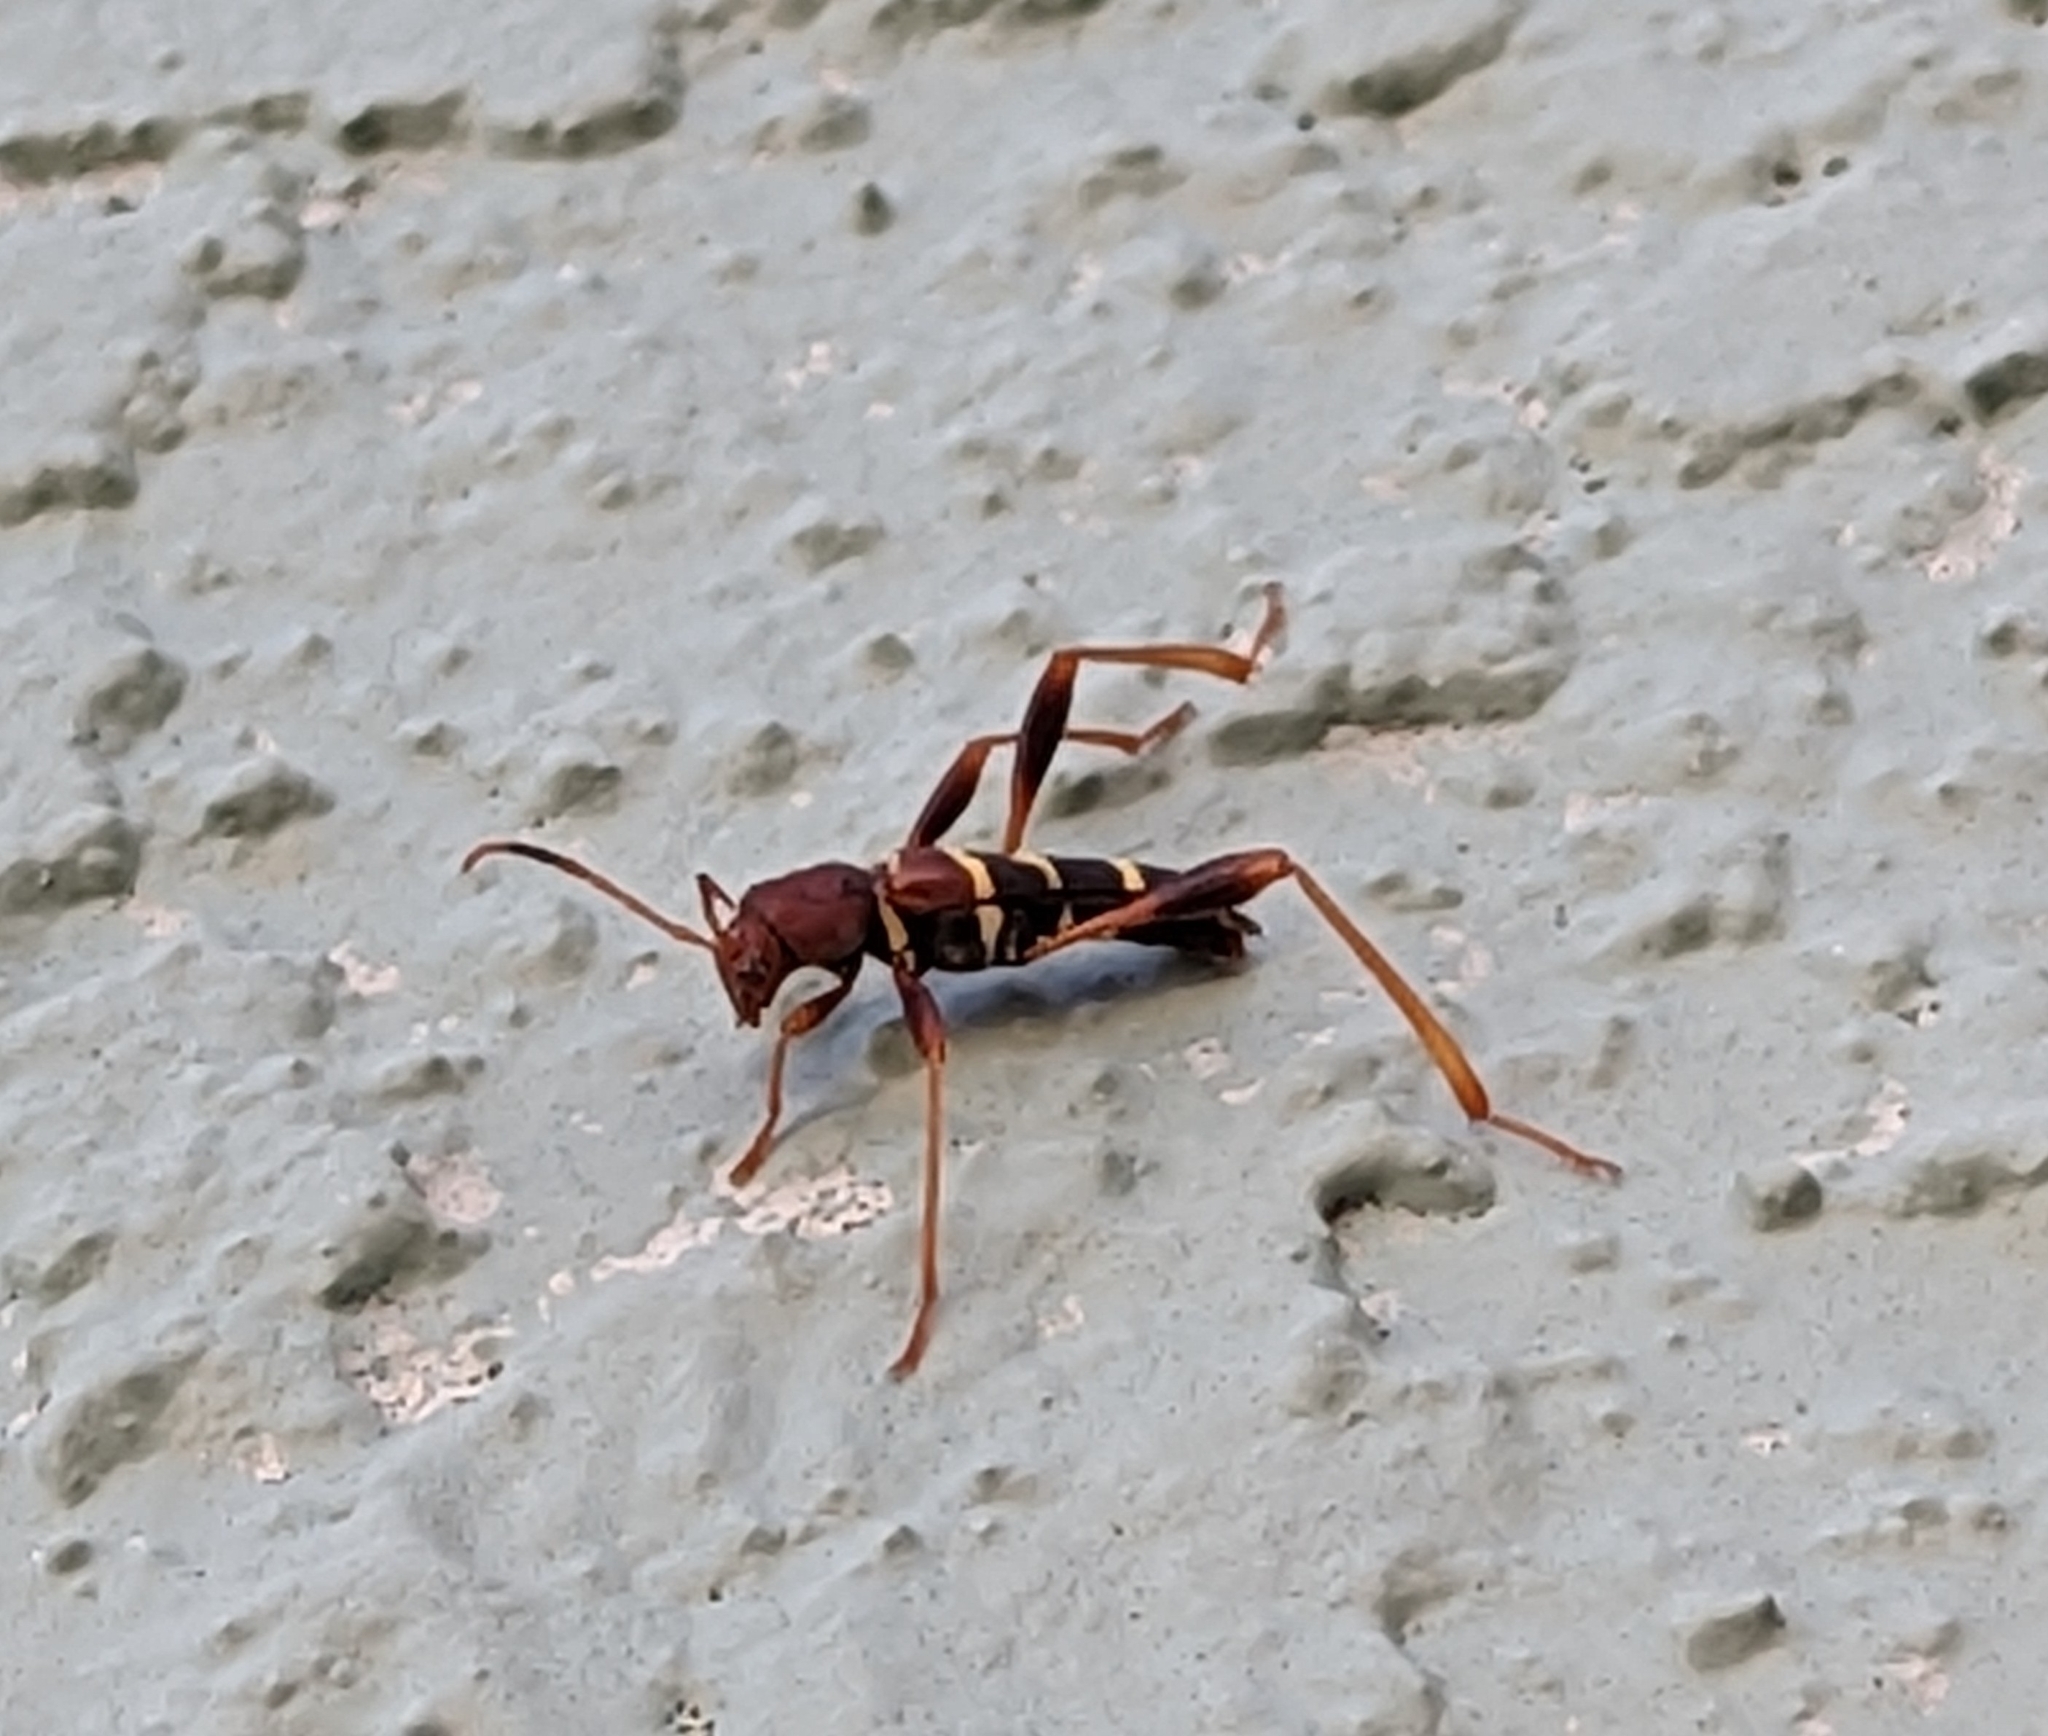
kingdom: Animalia
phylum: Arthropoda
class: Insecta
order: Coleoptera
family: Cerambycidae
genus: Neoclytus
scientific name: Neoclytus acuminatus
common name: Read-headed ash borer
